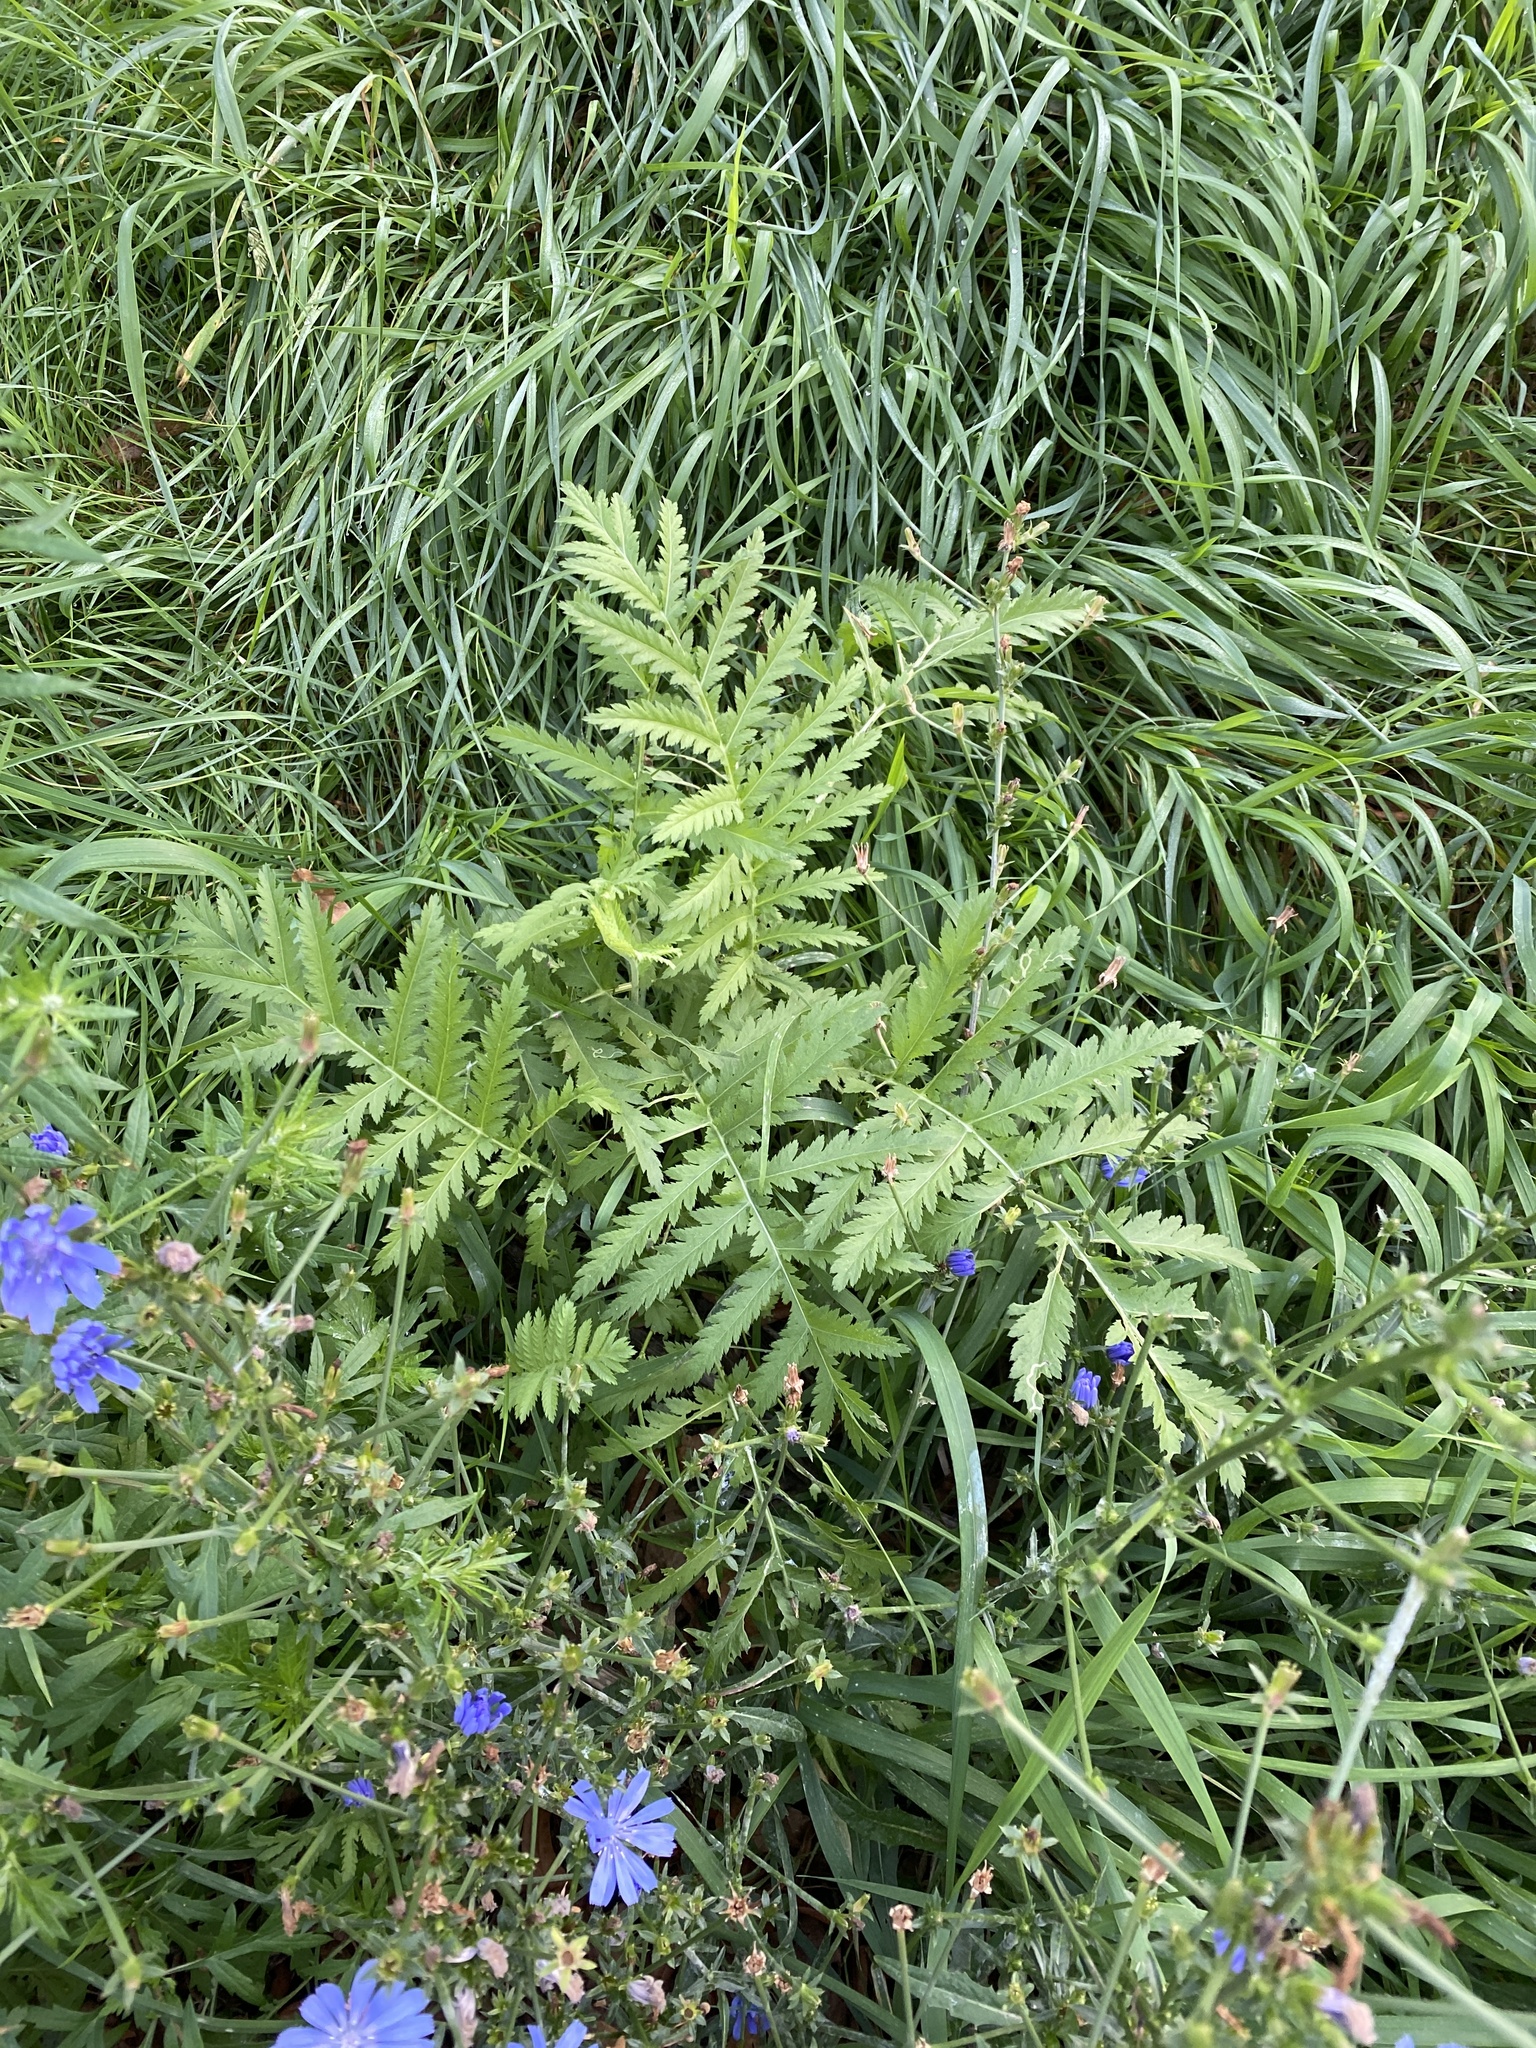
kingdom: Plantae
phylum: Tracheophyta
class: Magnoliopsida
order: Asterales
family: Asteraceae
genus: Tanacetum
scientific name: Tanacetum vulgare
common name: Common tansy
